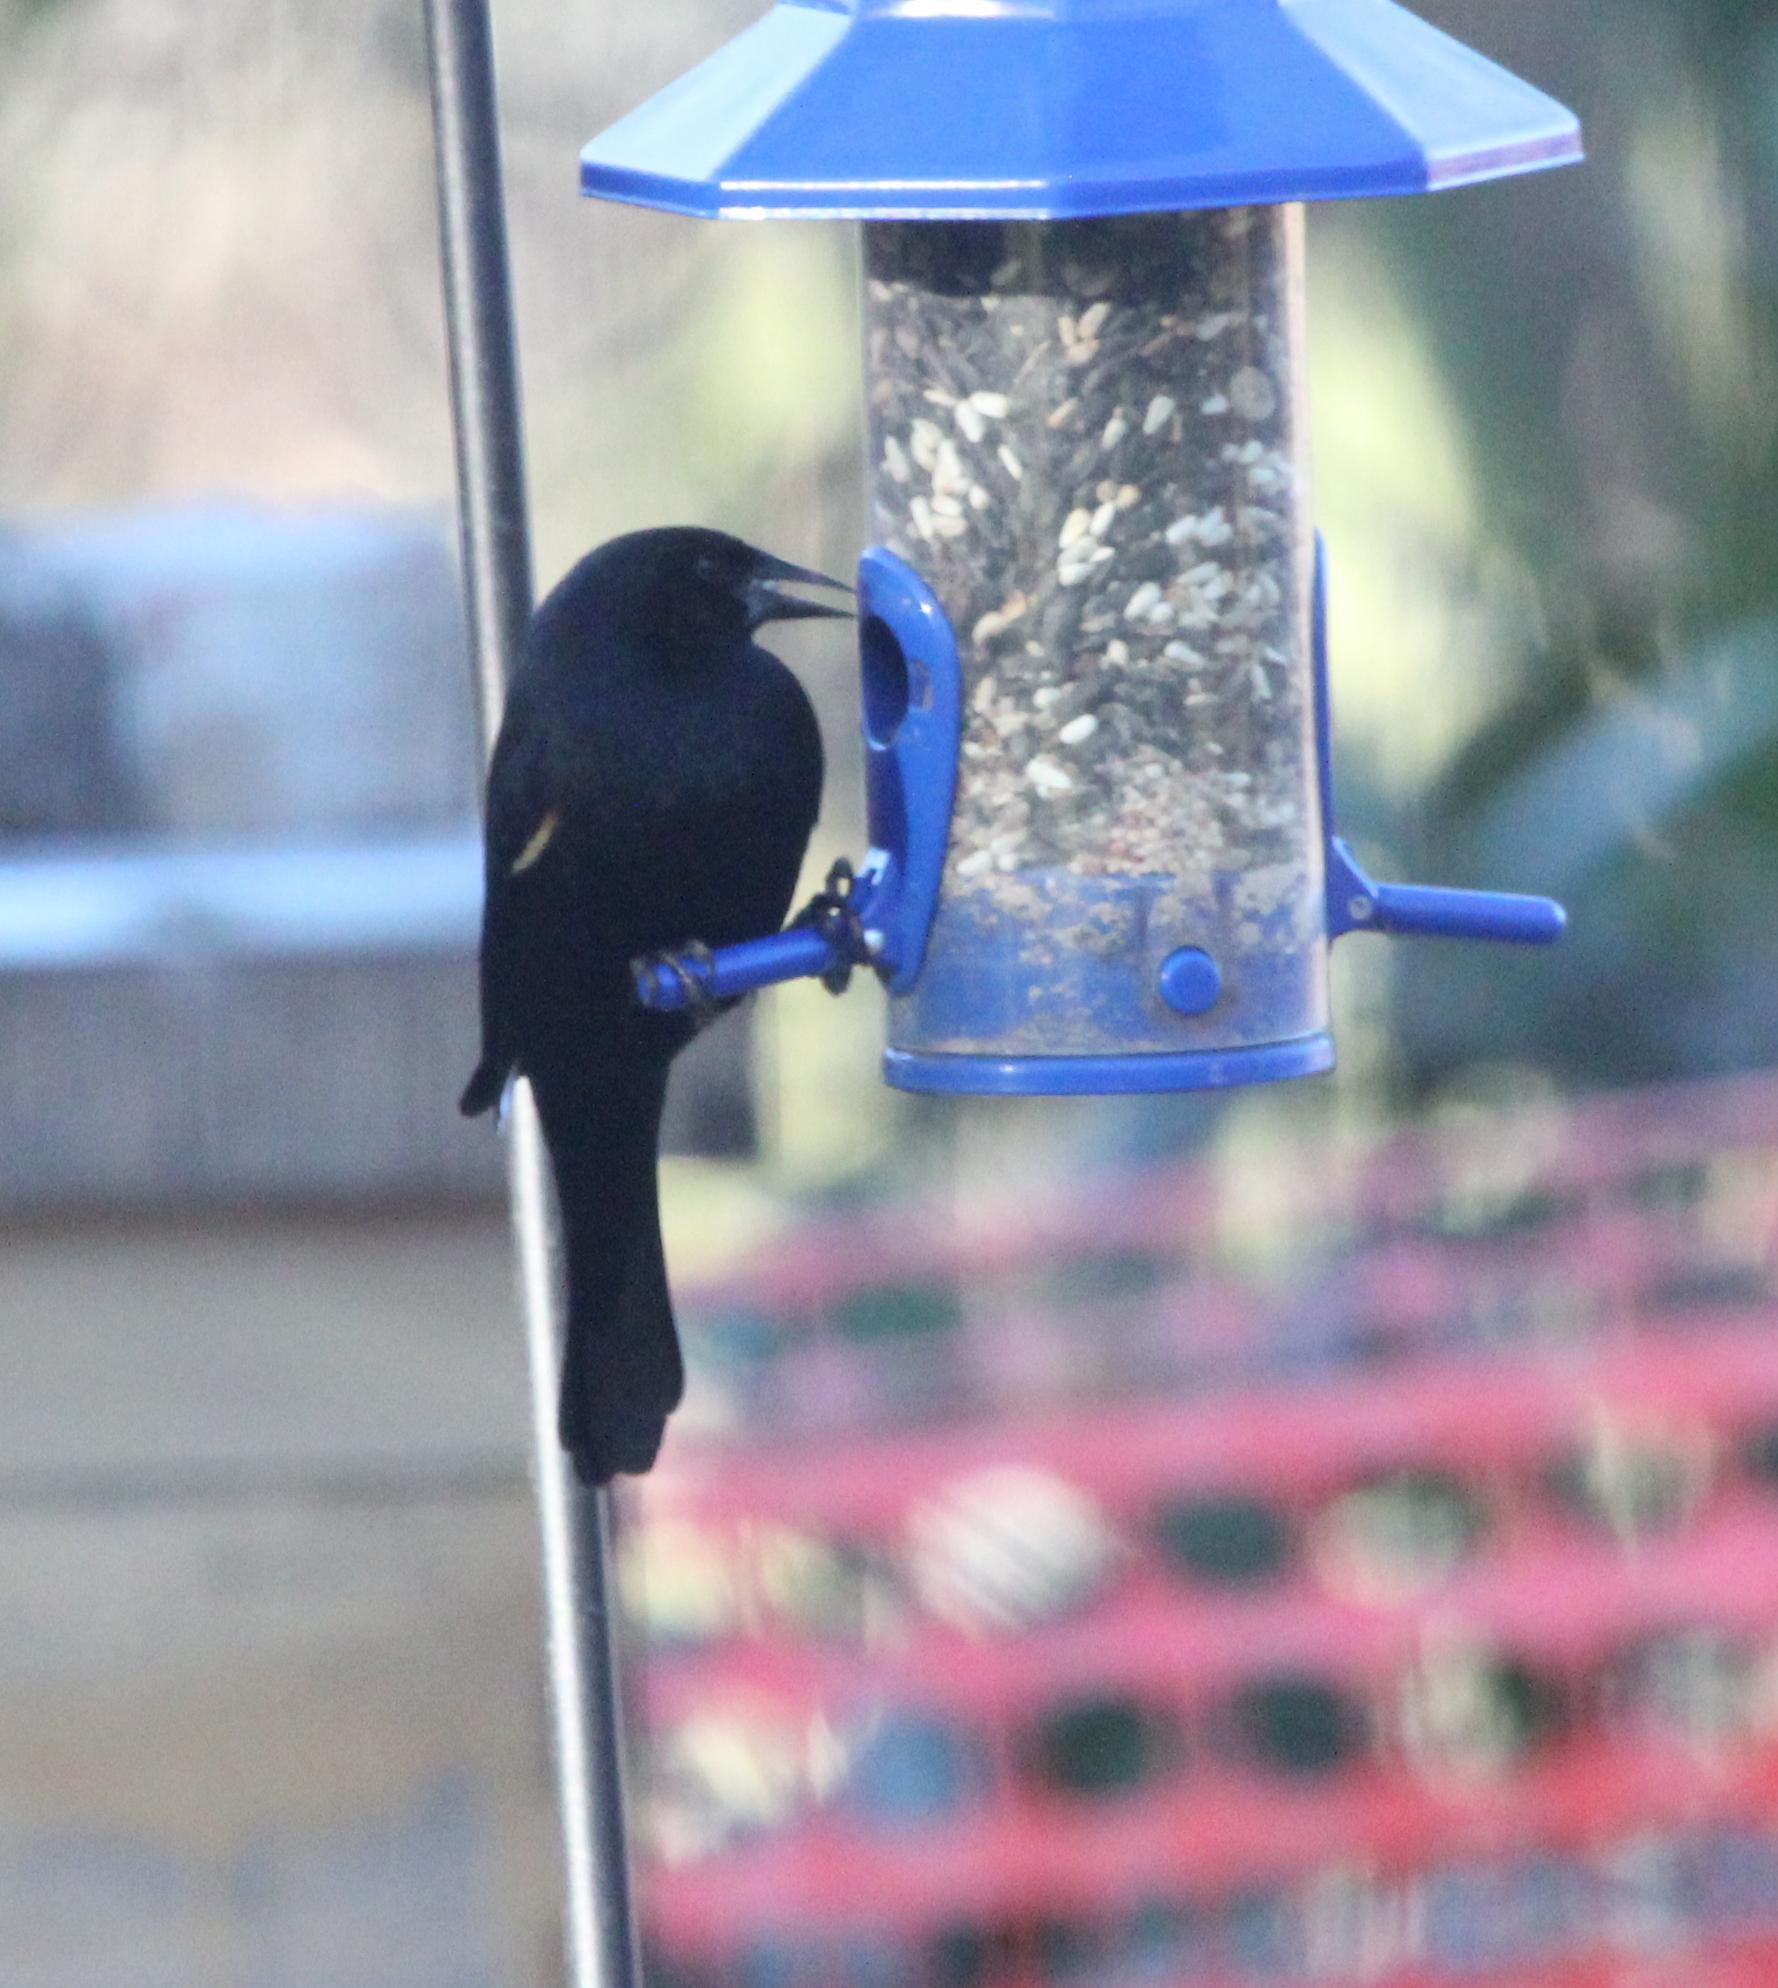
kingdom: Animalia
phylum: Chordata
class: Aves
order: Passeriformes
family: Icteridae
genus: Agelaius
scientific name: Agelaius phoeniceus
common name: Red-winged blackbird
